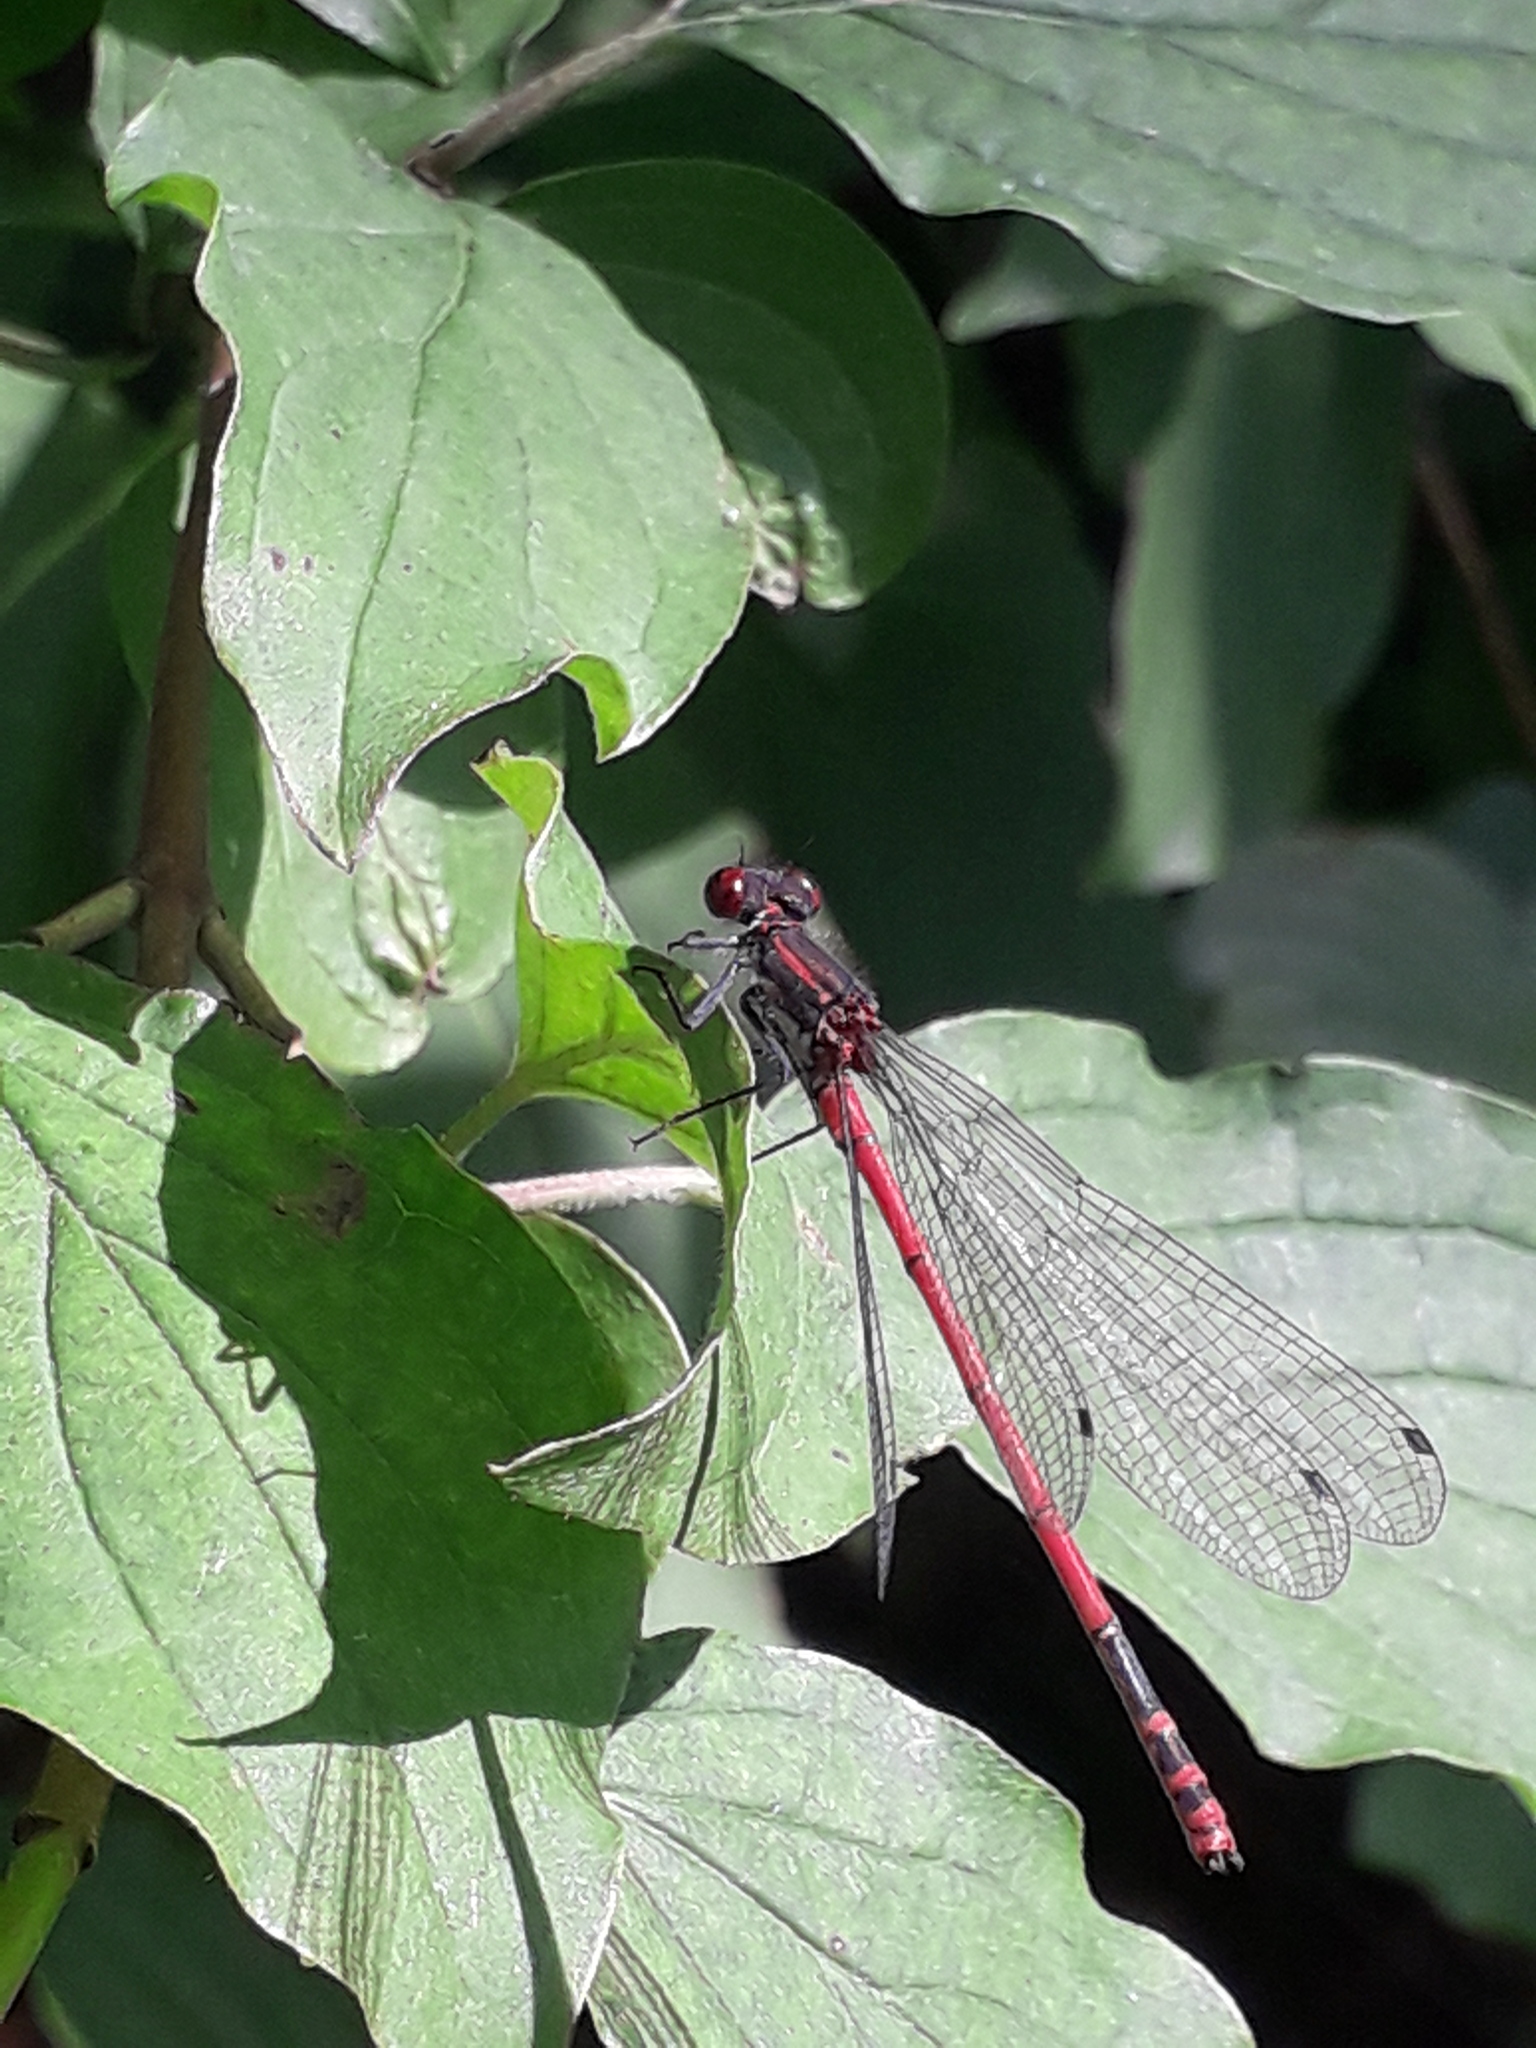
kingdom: Animalia
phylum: Arthropoda
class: Insecta
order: Odonata
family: Coenagrionidae
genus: Pyrrhosoma
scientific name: Pyrrhosoma nymphula
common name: Large red damsel
